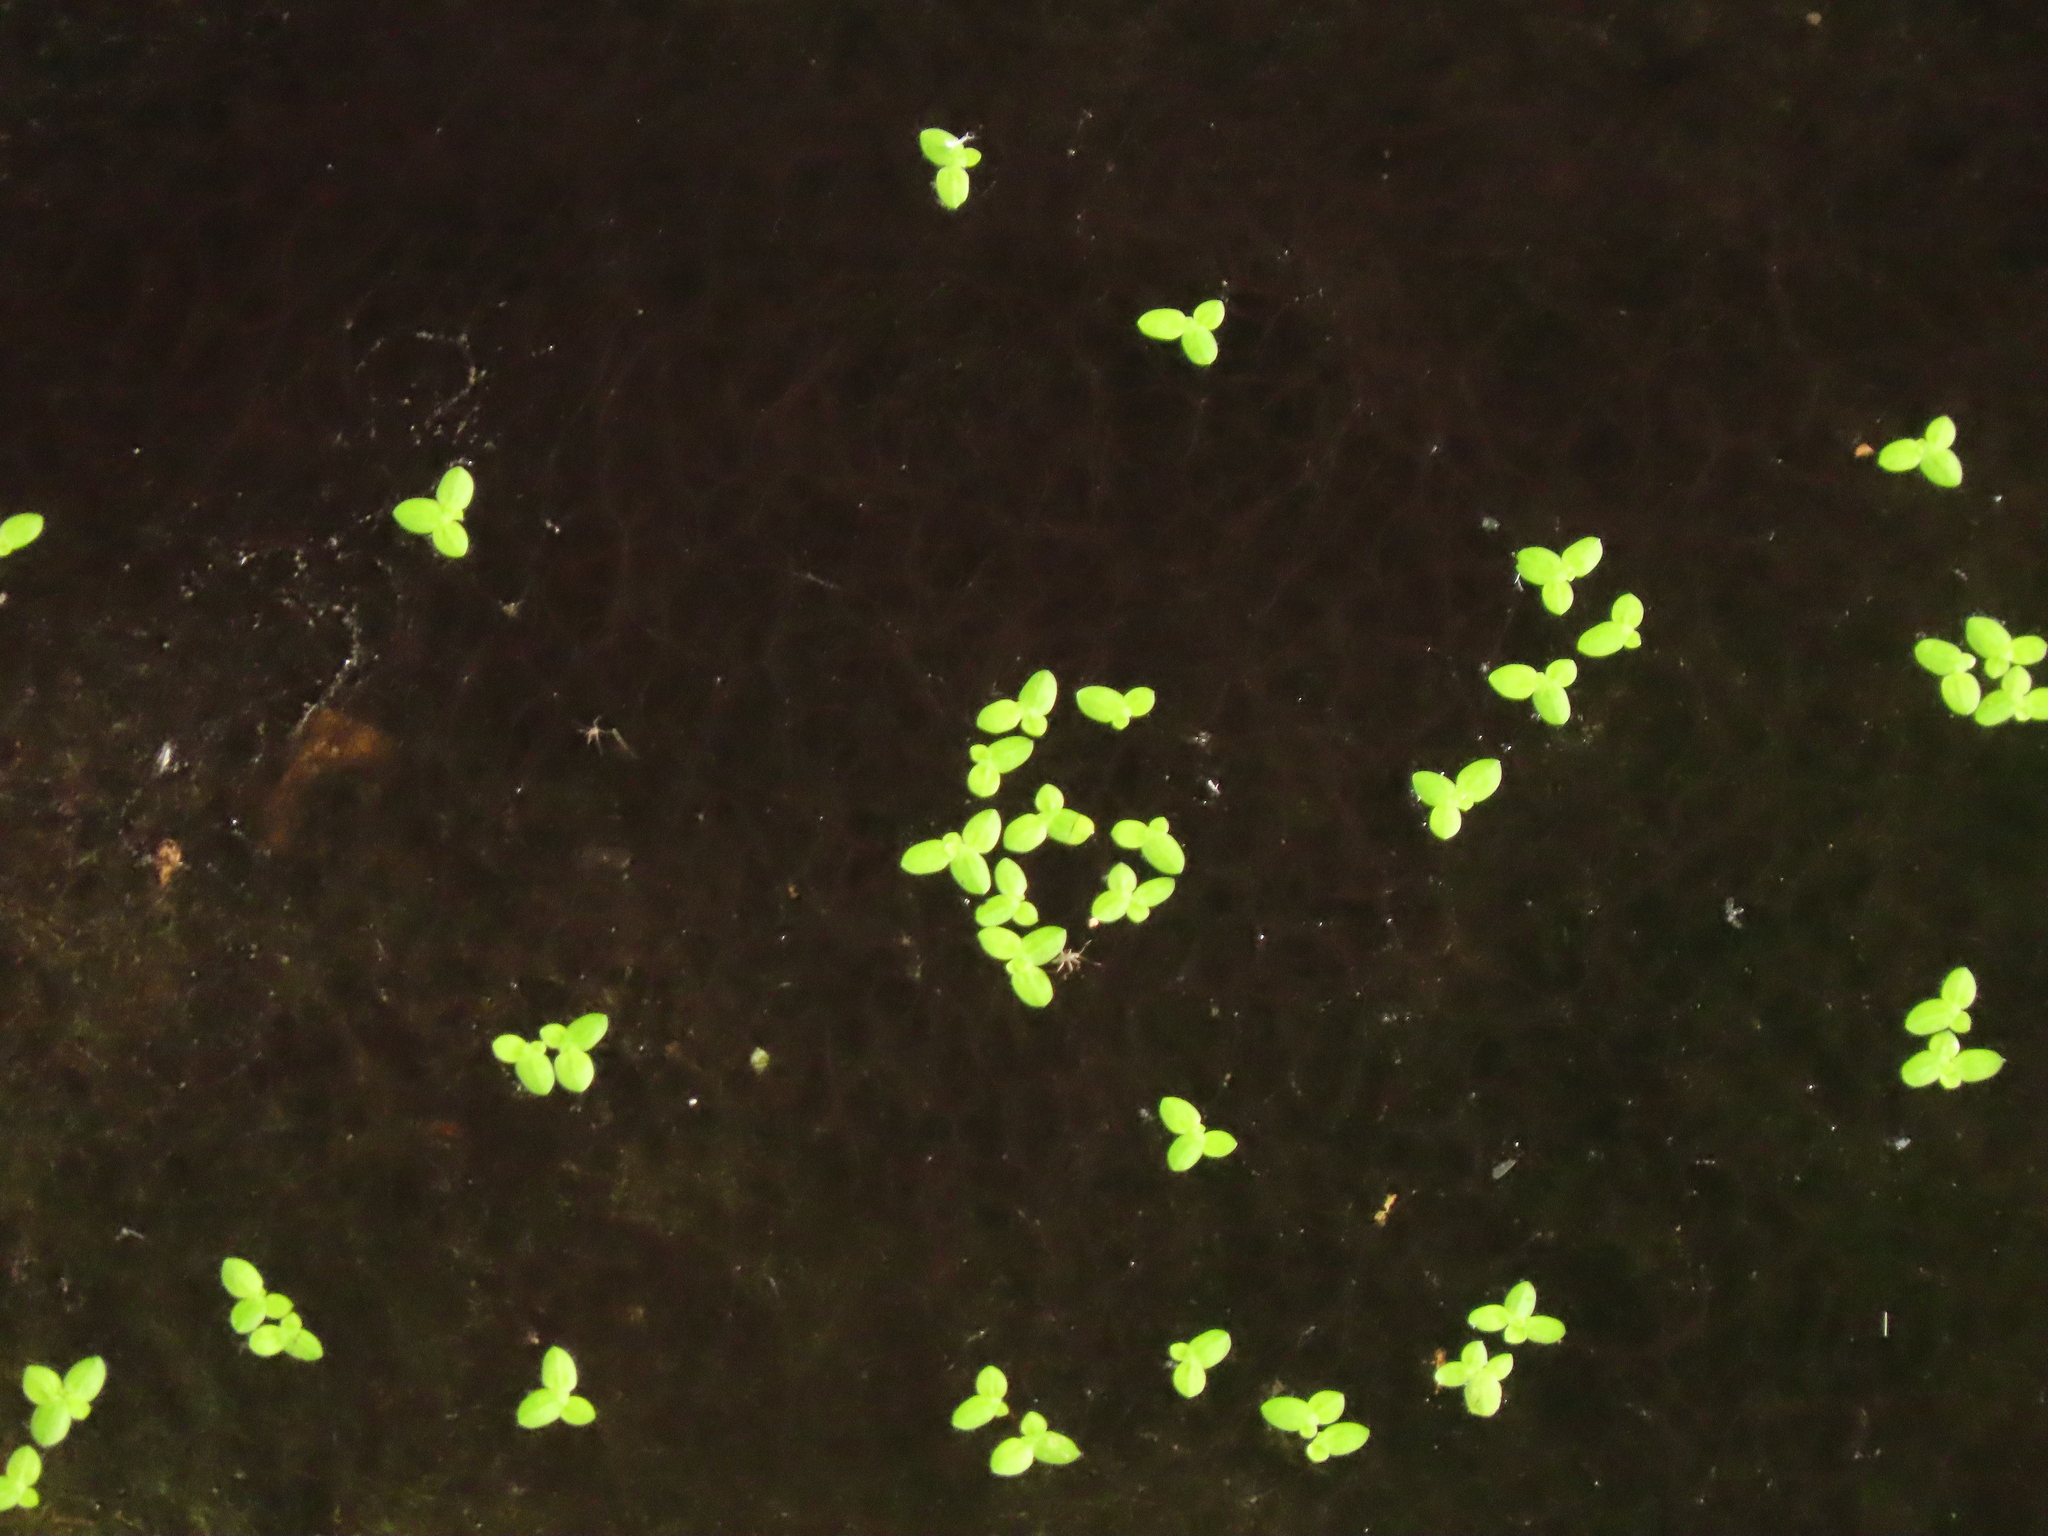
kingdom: Plantae
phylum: Tracheophyta
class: Liliopsida
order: Alismatales
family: Araceae
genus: Lemna
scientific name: Lemna aequinoctialis
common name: Duckweed
